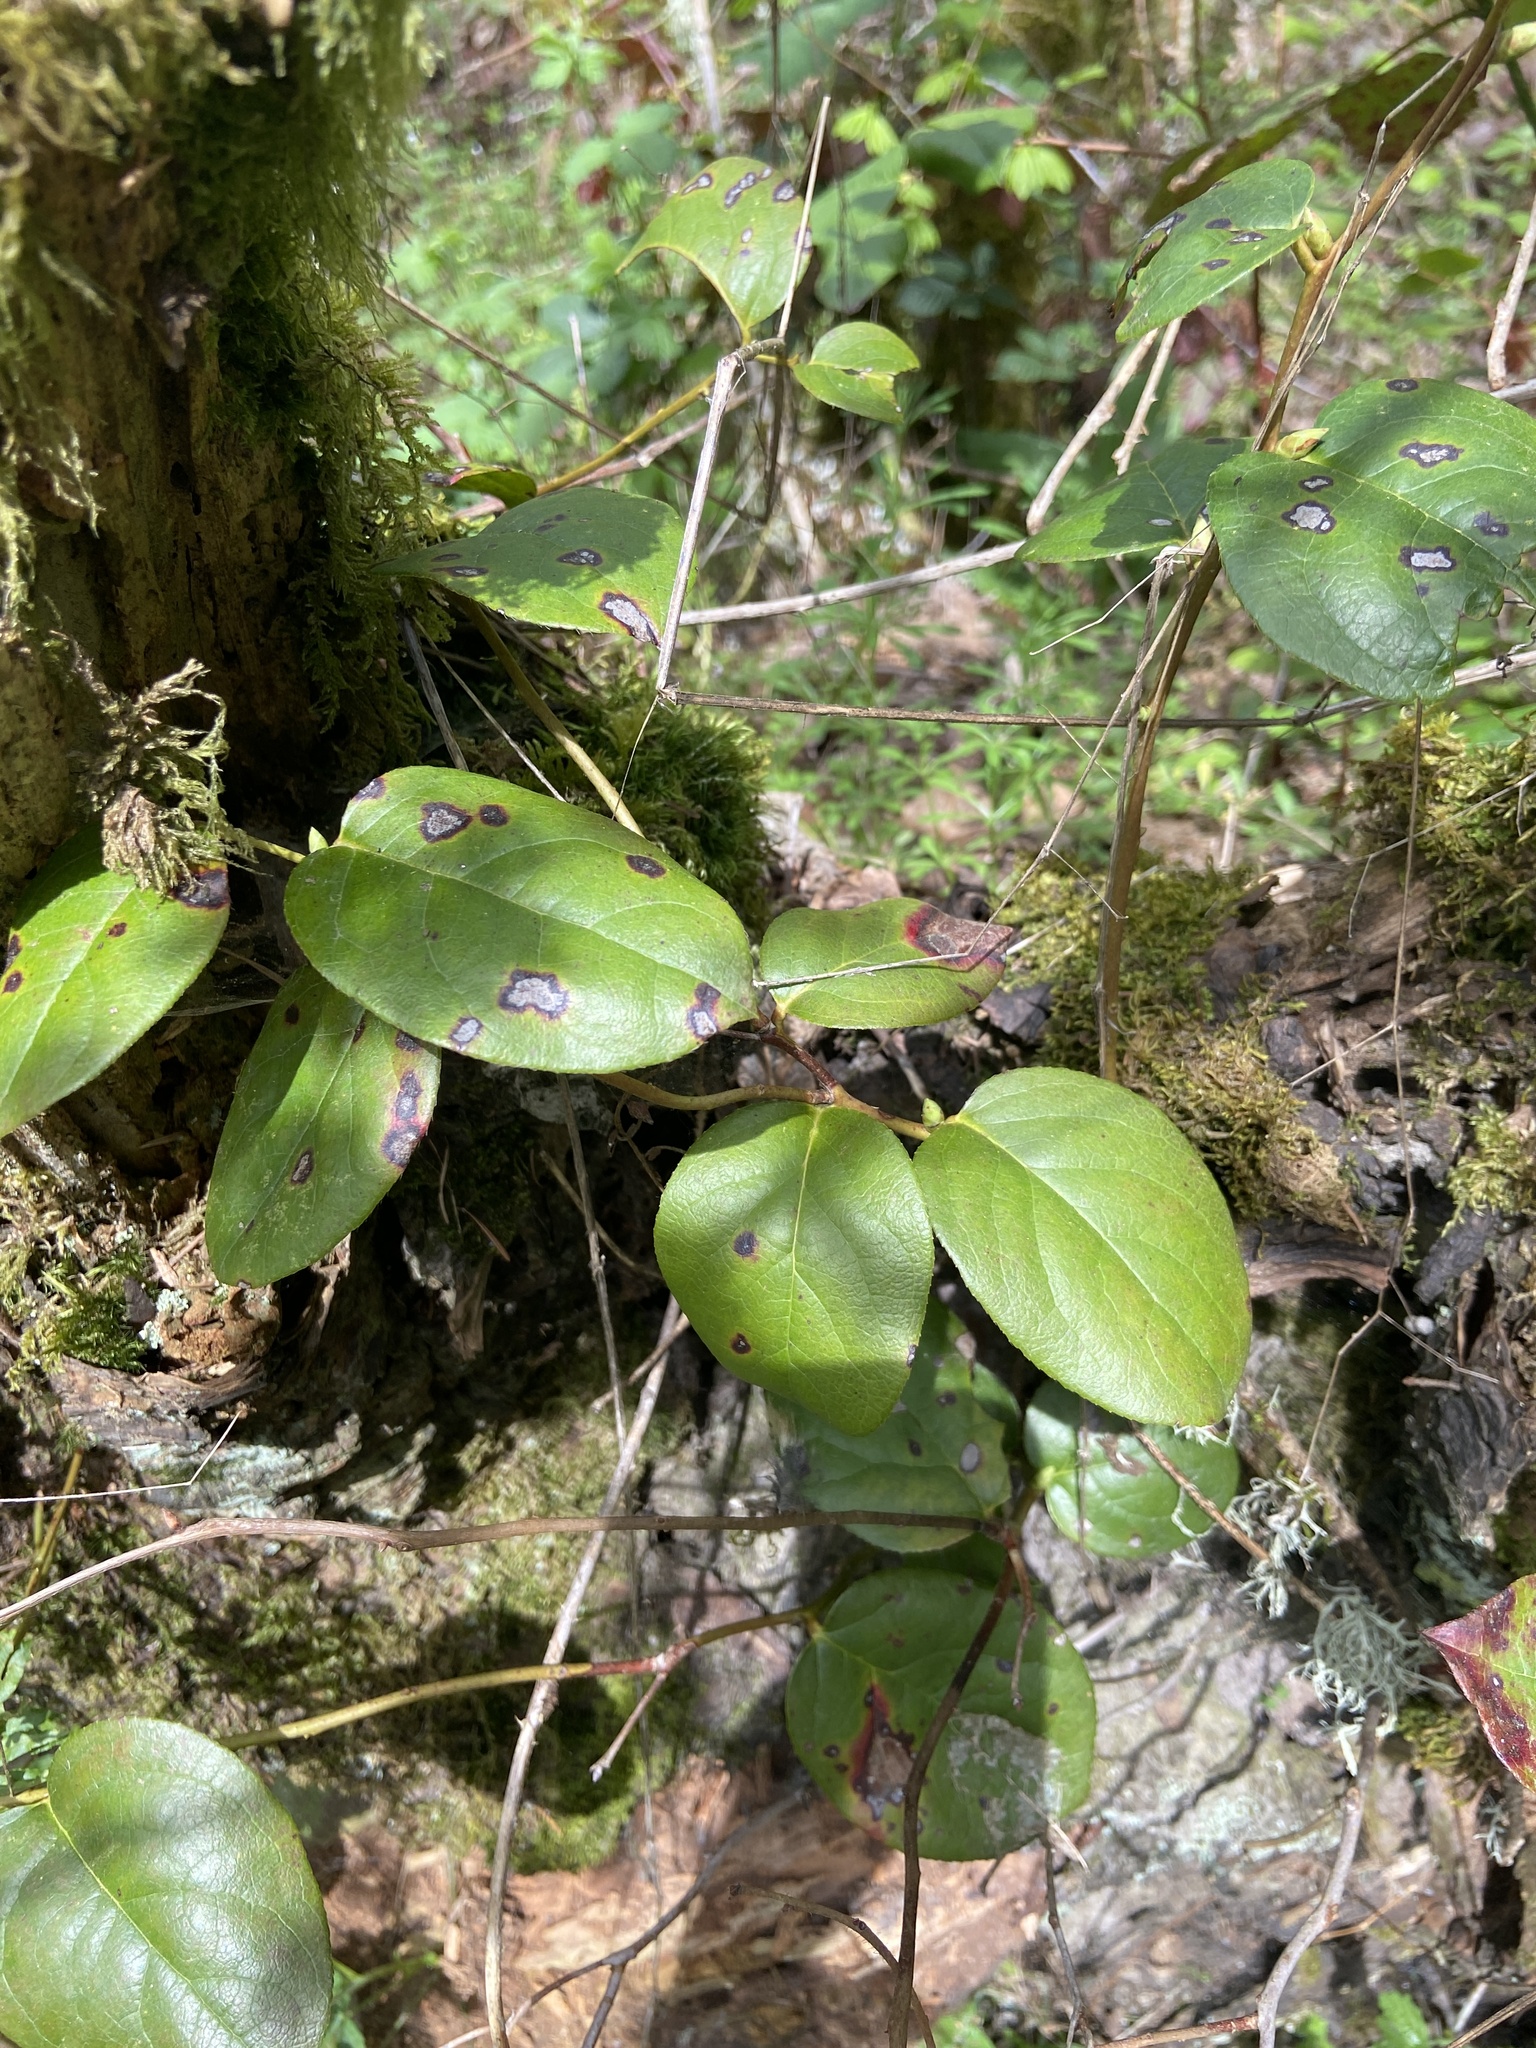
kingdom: Plantae
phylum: Tracheophyta
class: Magnoliopsida
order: Ericales
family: Ericaceae
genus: Gaultheria
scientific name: Gaultheria shallon
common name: Shallon
